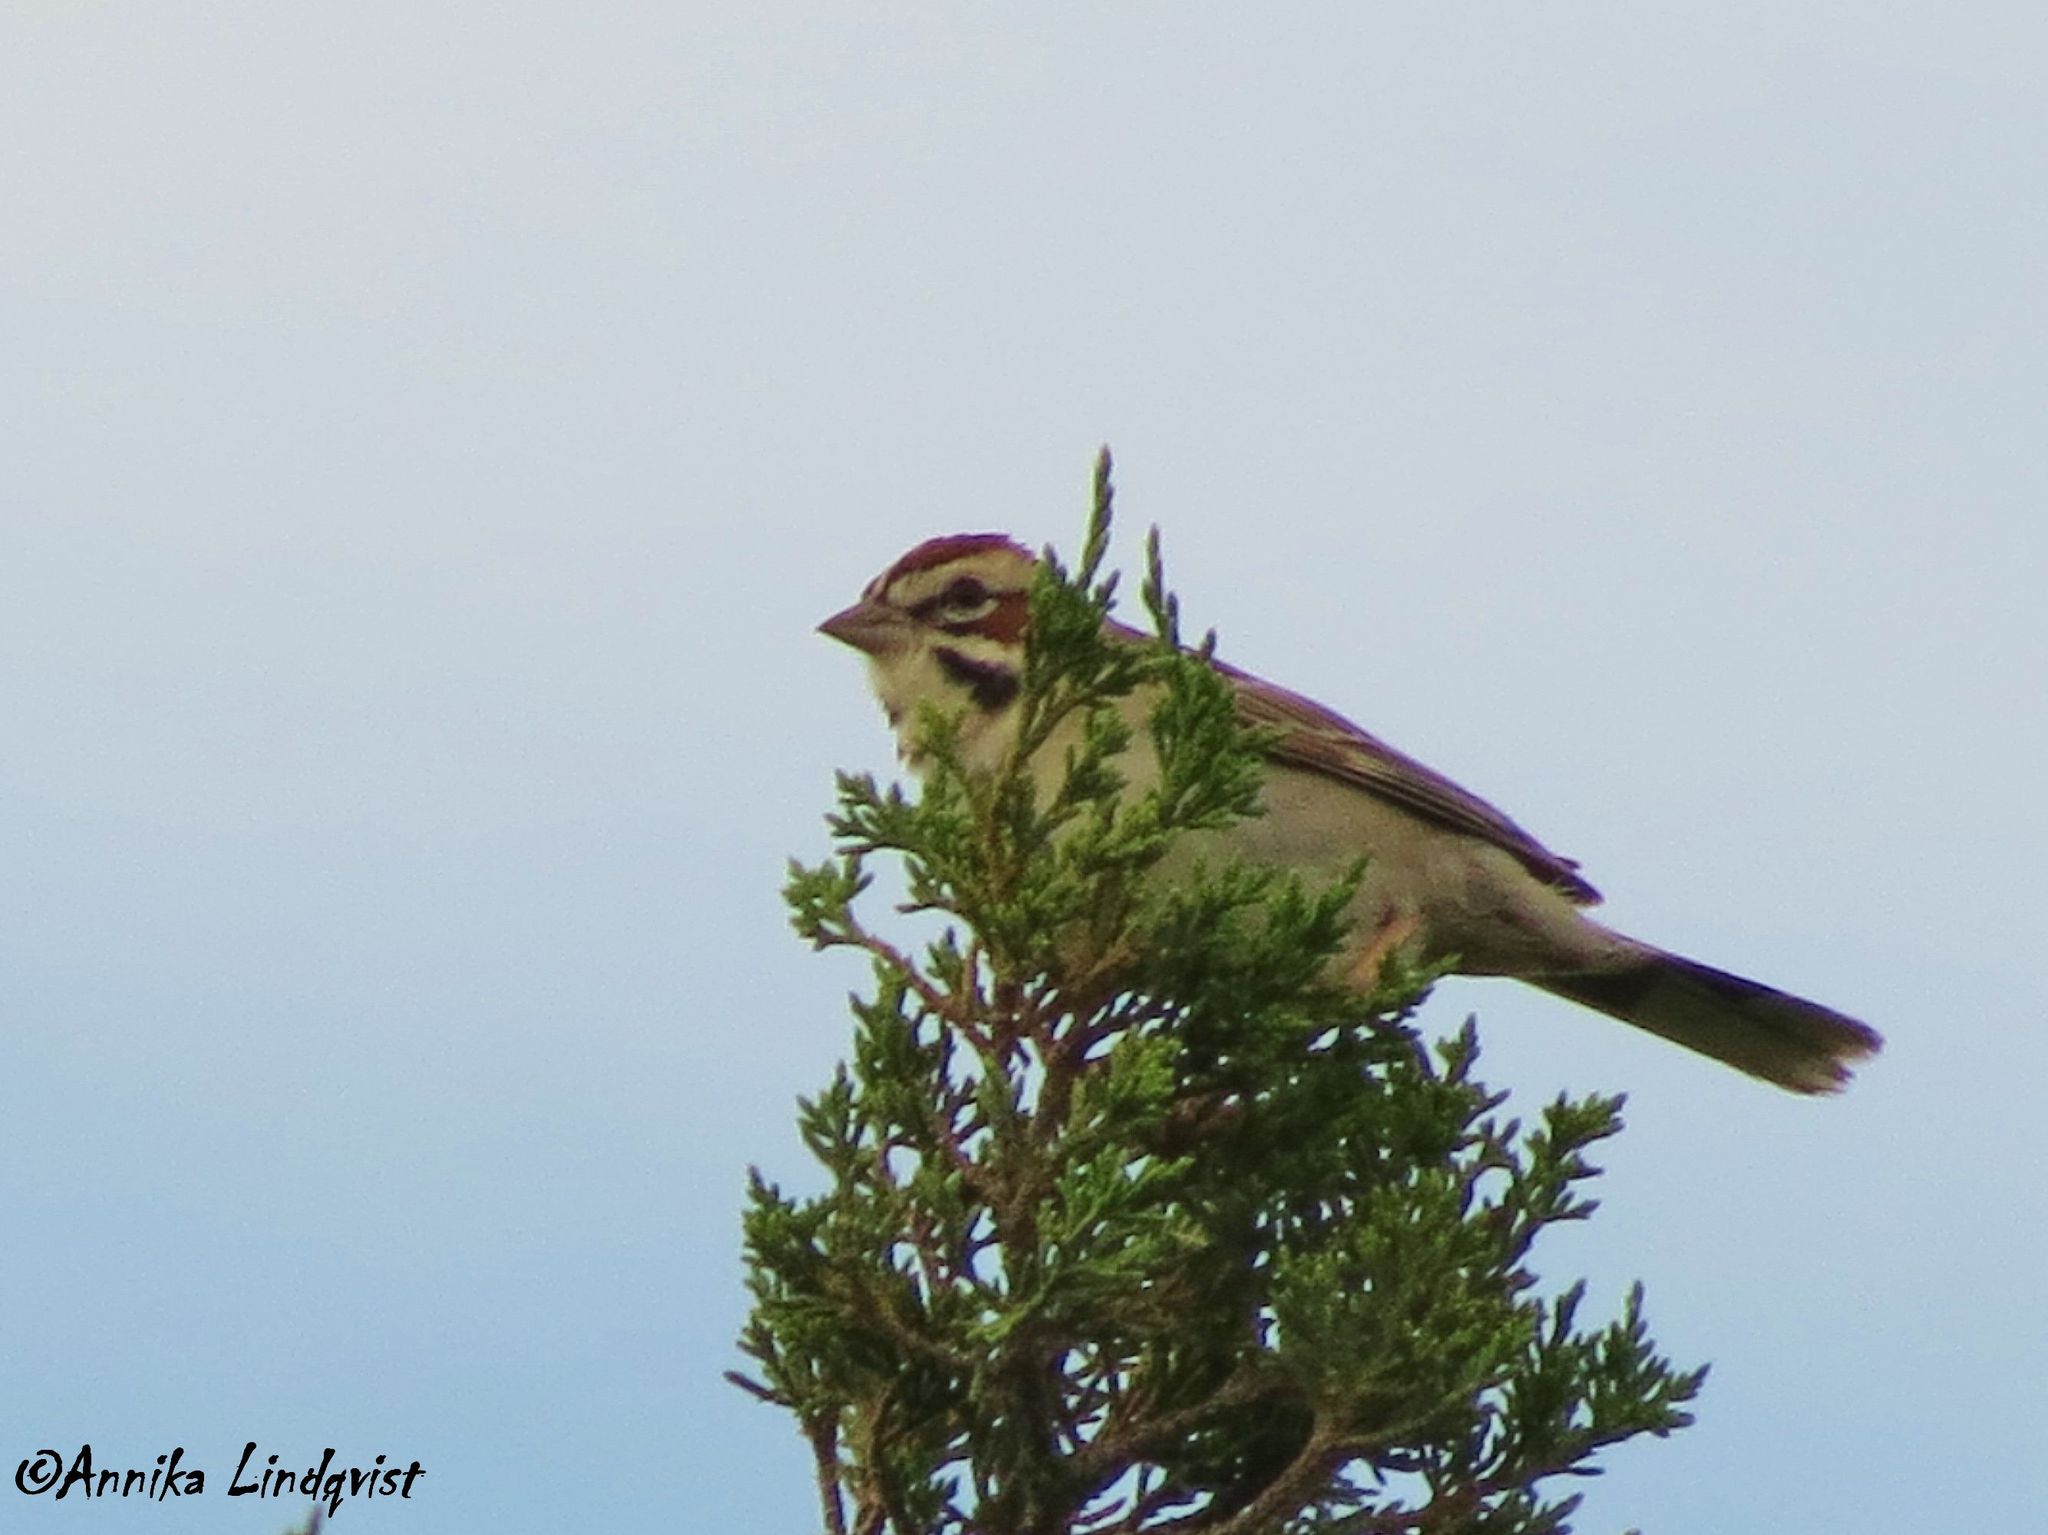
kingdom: Animalia
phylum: Chordata
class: Aves
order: Passeriformes
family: Passerellidae
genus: Chondestes
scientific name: Chondestes grammacus
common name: Lark sparrow
